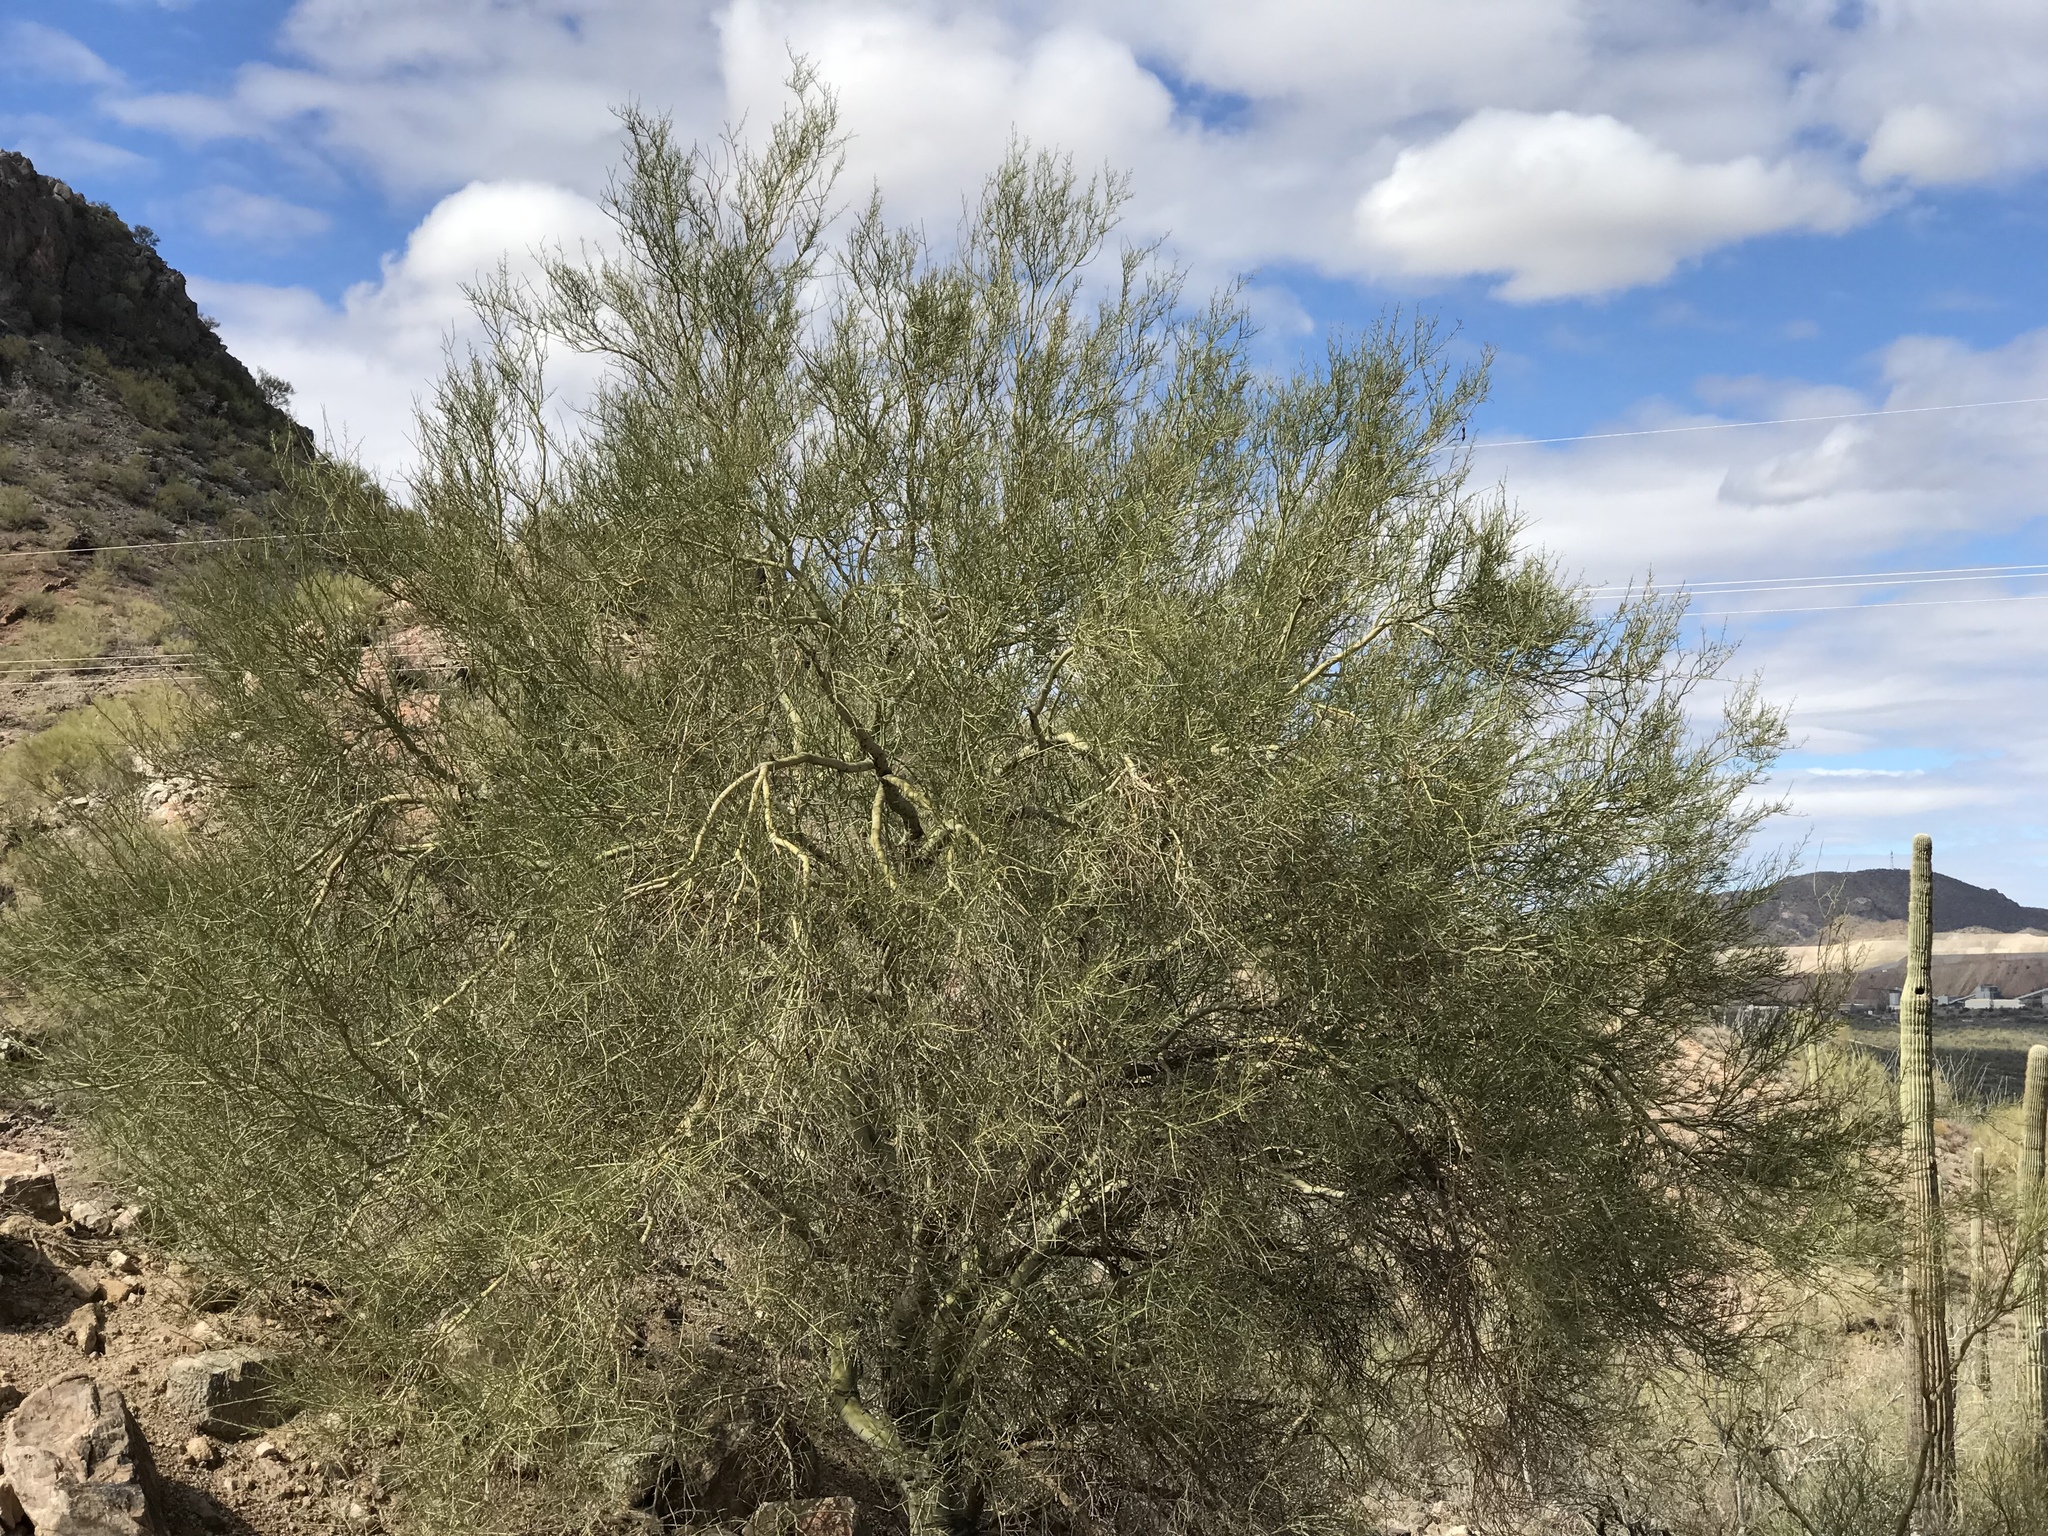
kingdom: Plantae
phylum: Tracheophyta
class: Magnoliopsida
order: Fabales
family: Fabaceae
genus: Parkinsonia
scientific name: Parkinsonia microphylla
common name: Yellow paloverde
